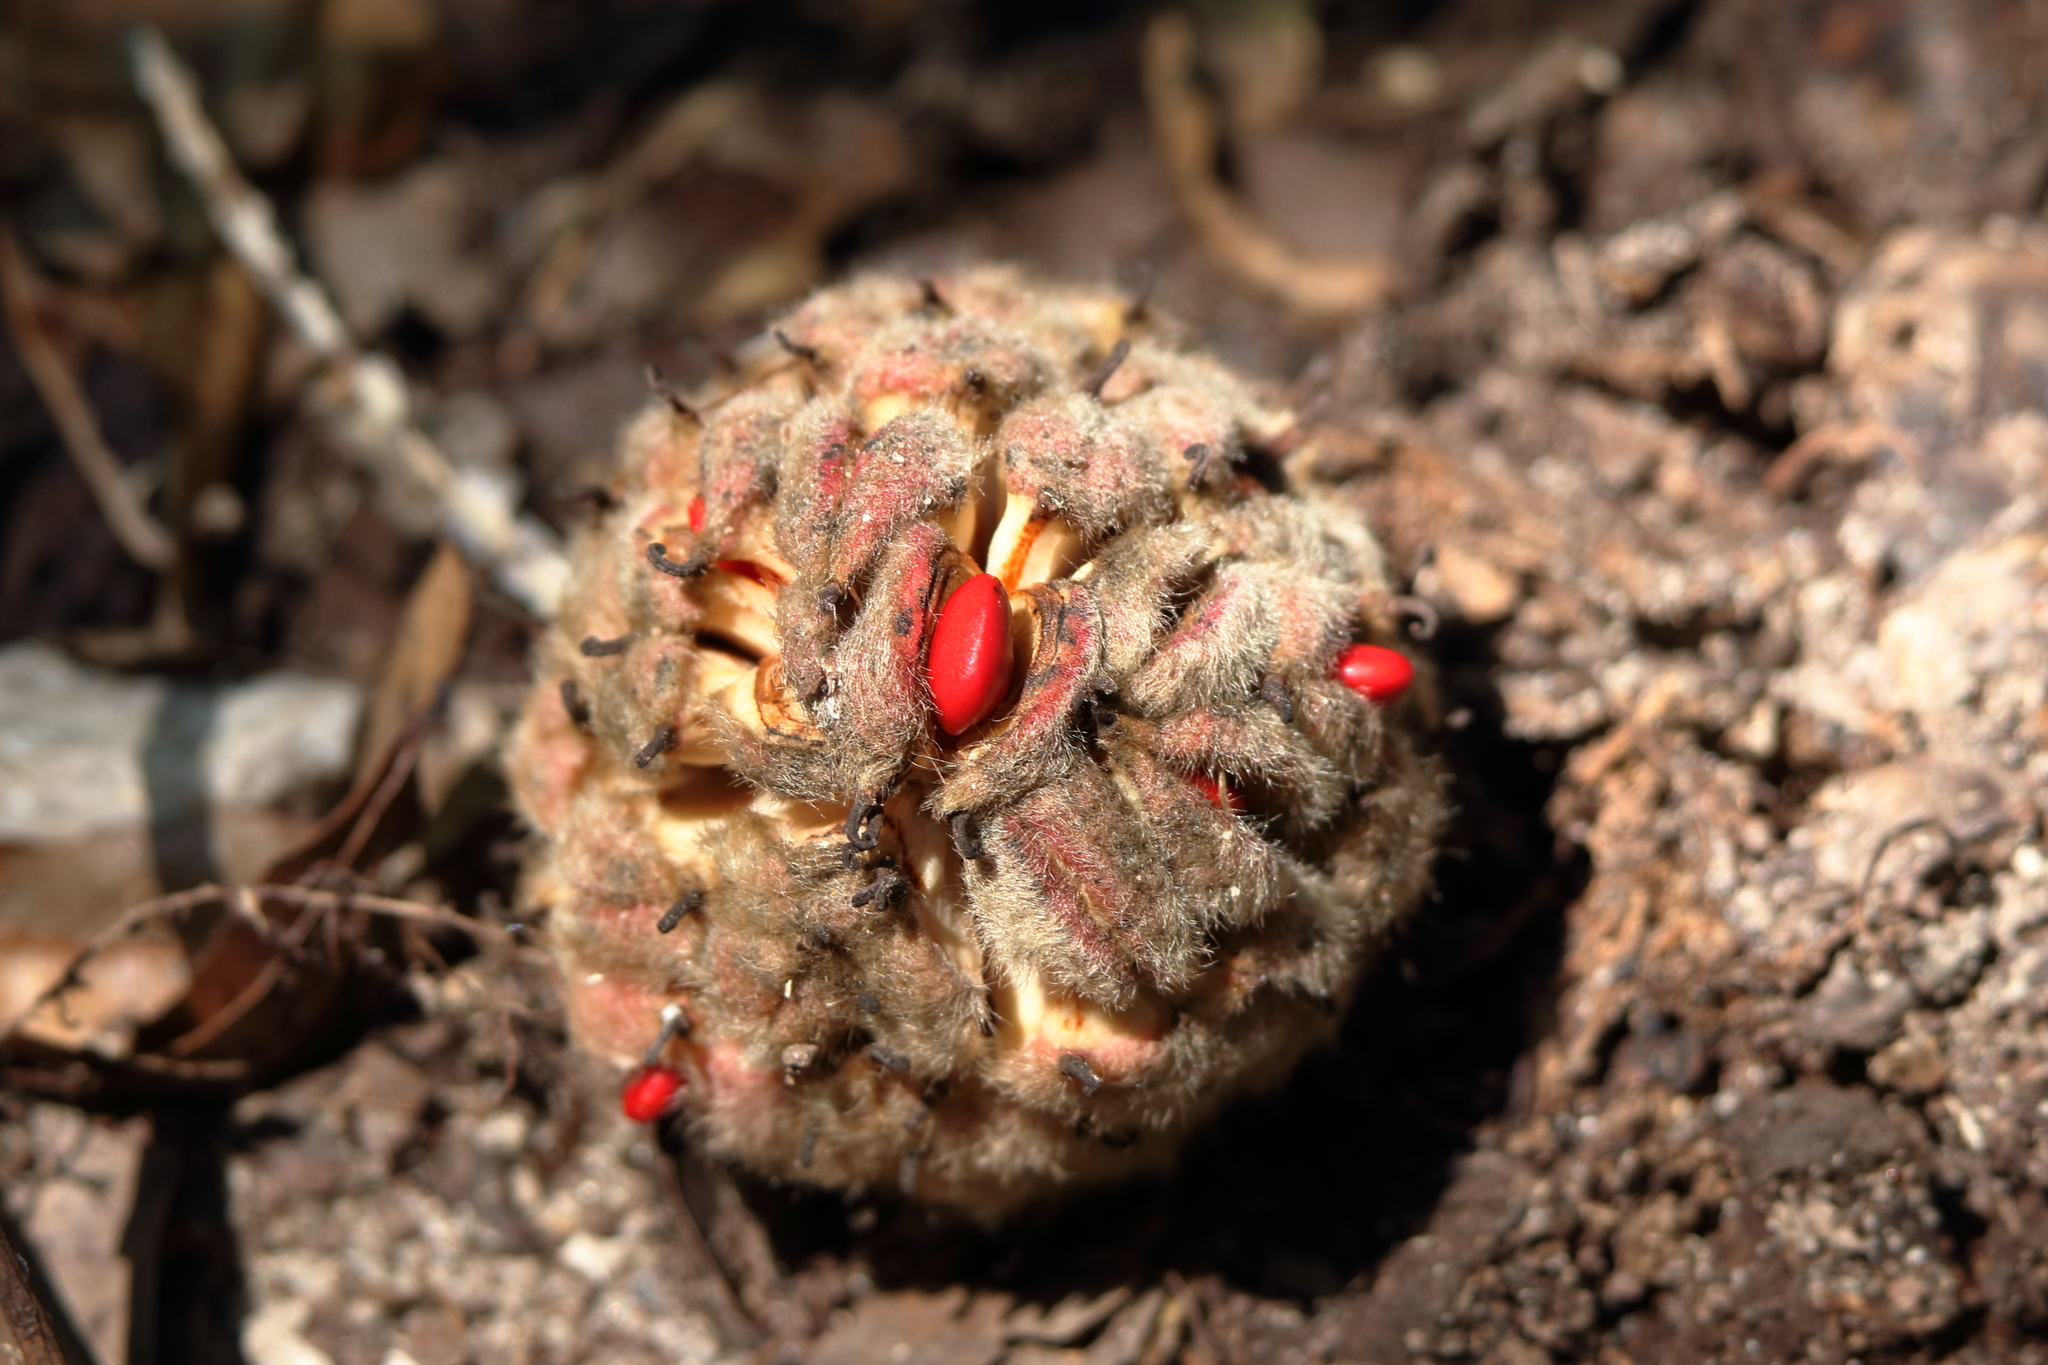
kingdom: Plantae
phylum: Tracheophyta
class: Magnoliopsida
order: Magnoliales
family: Magnoliaceae
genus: Magnolia
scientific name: Magnolia grandiflora
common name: Southern magnolia
